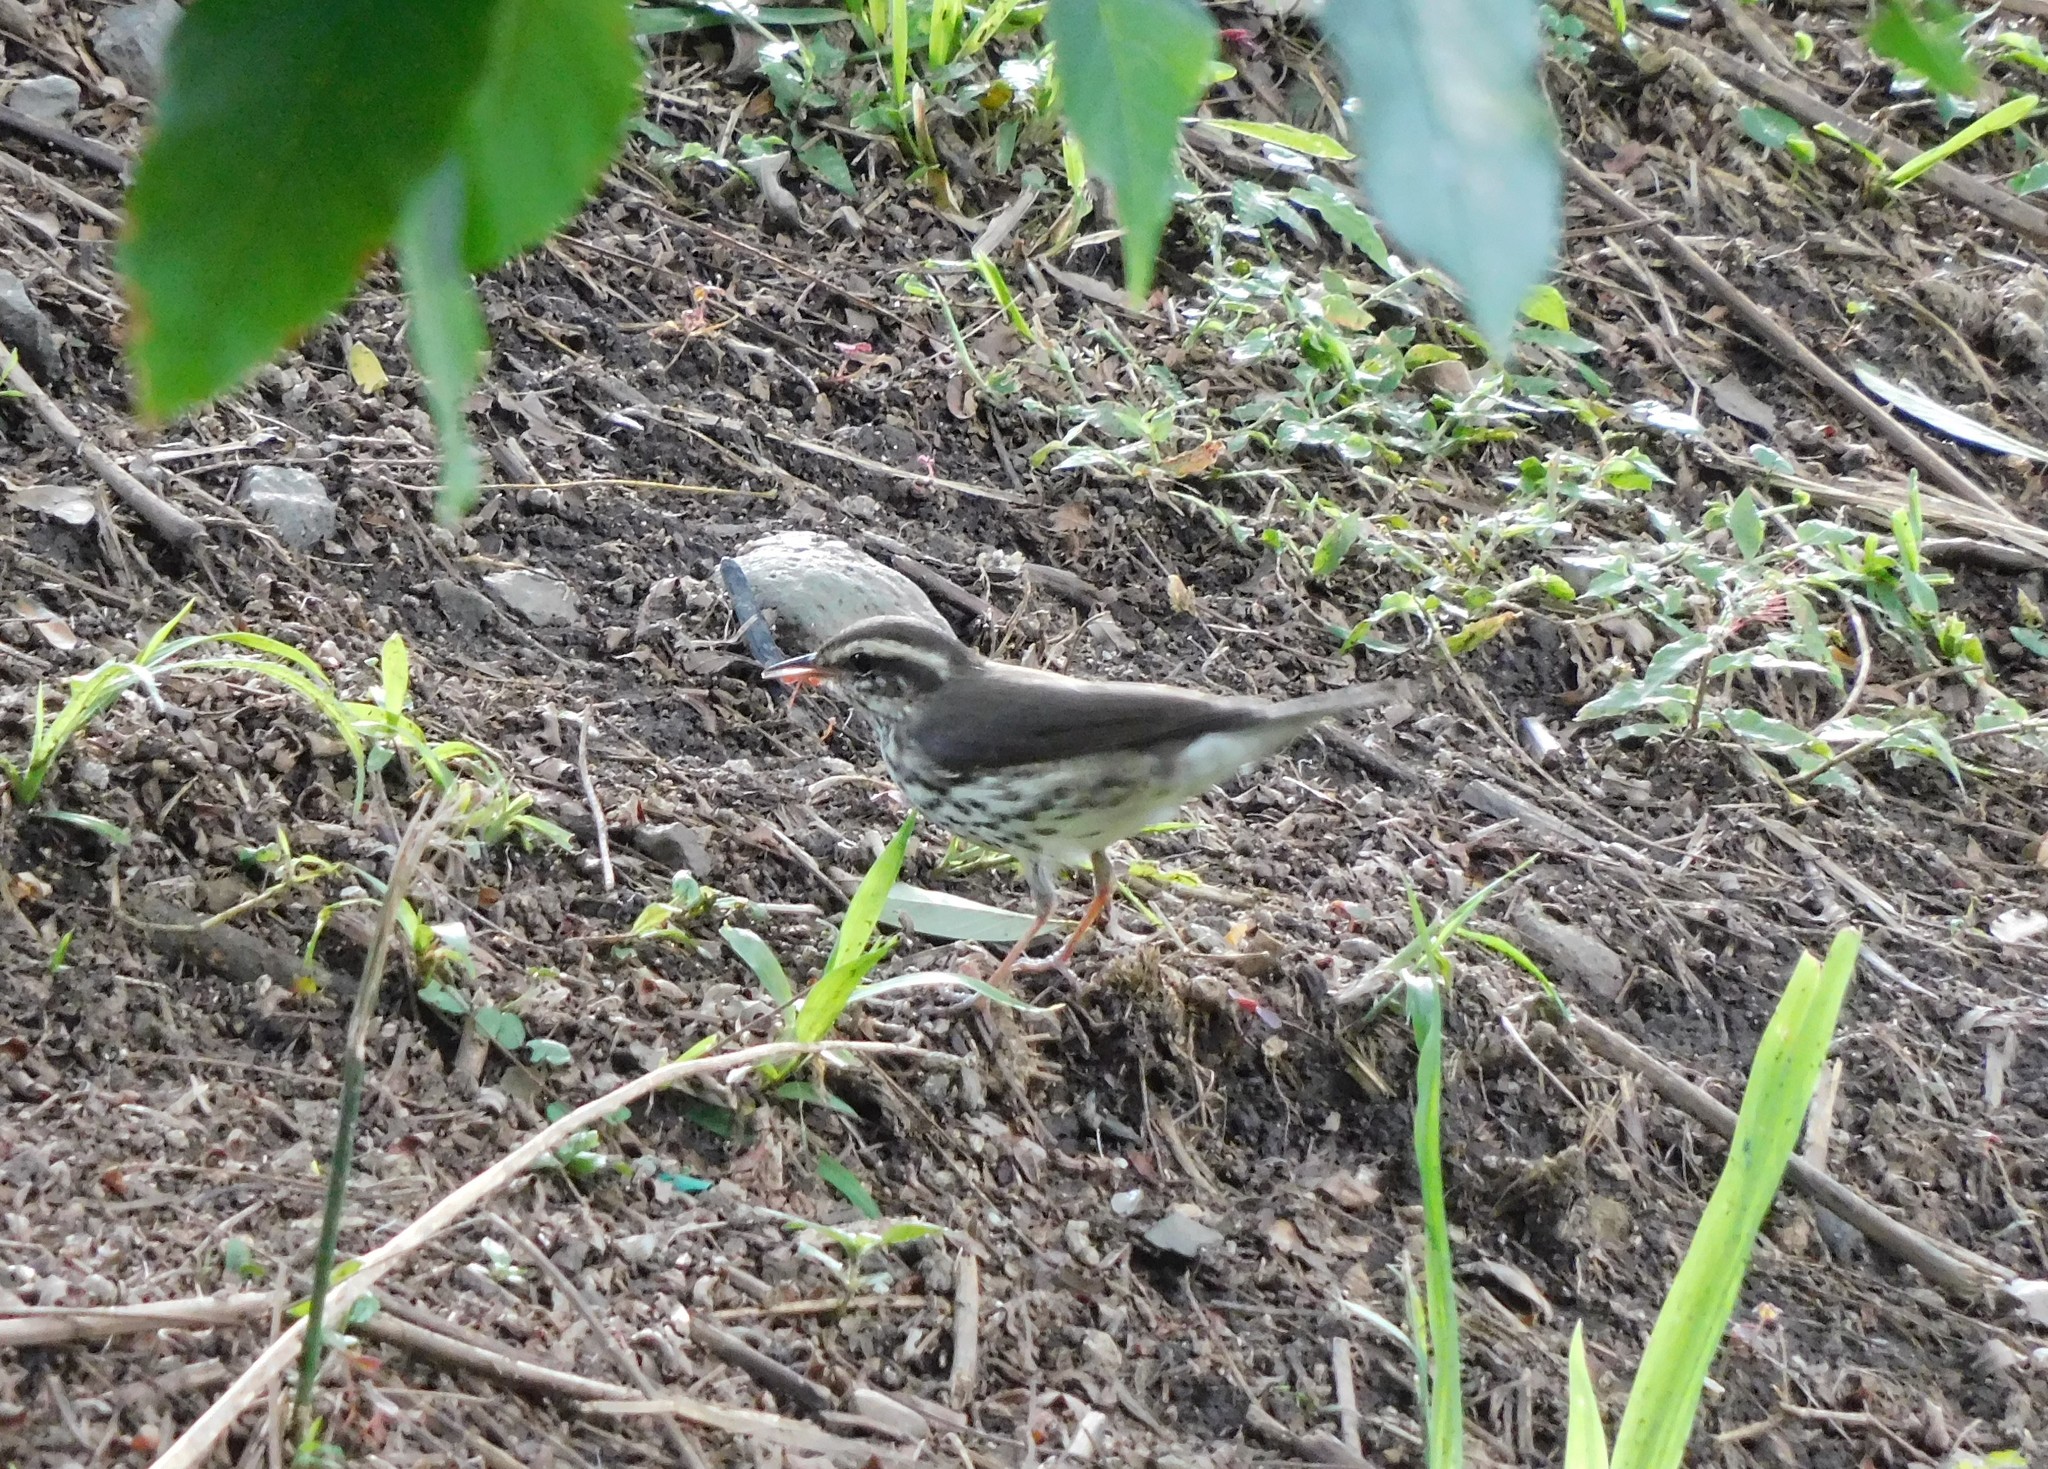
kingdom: Animalia
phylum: Chordata
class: Aves
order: Passeriformes
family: Parulidae
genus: Parkesia
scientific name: Parkesia noveboracensis
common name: Northern waterthrush
